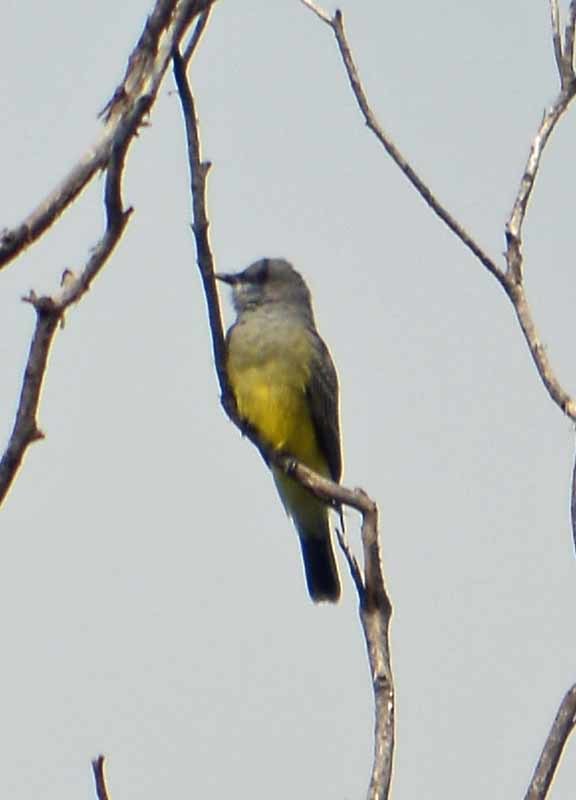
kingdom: Animalia
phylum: Chordata
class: Aves
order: Passeriformes
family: Tyrannidae
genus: Tyrannus
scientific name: Tyrannus vociferans
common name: Cassin's kingbird
